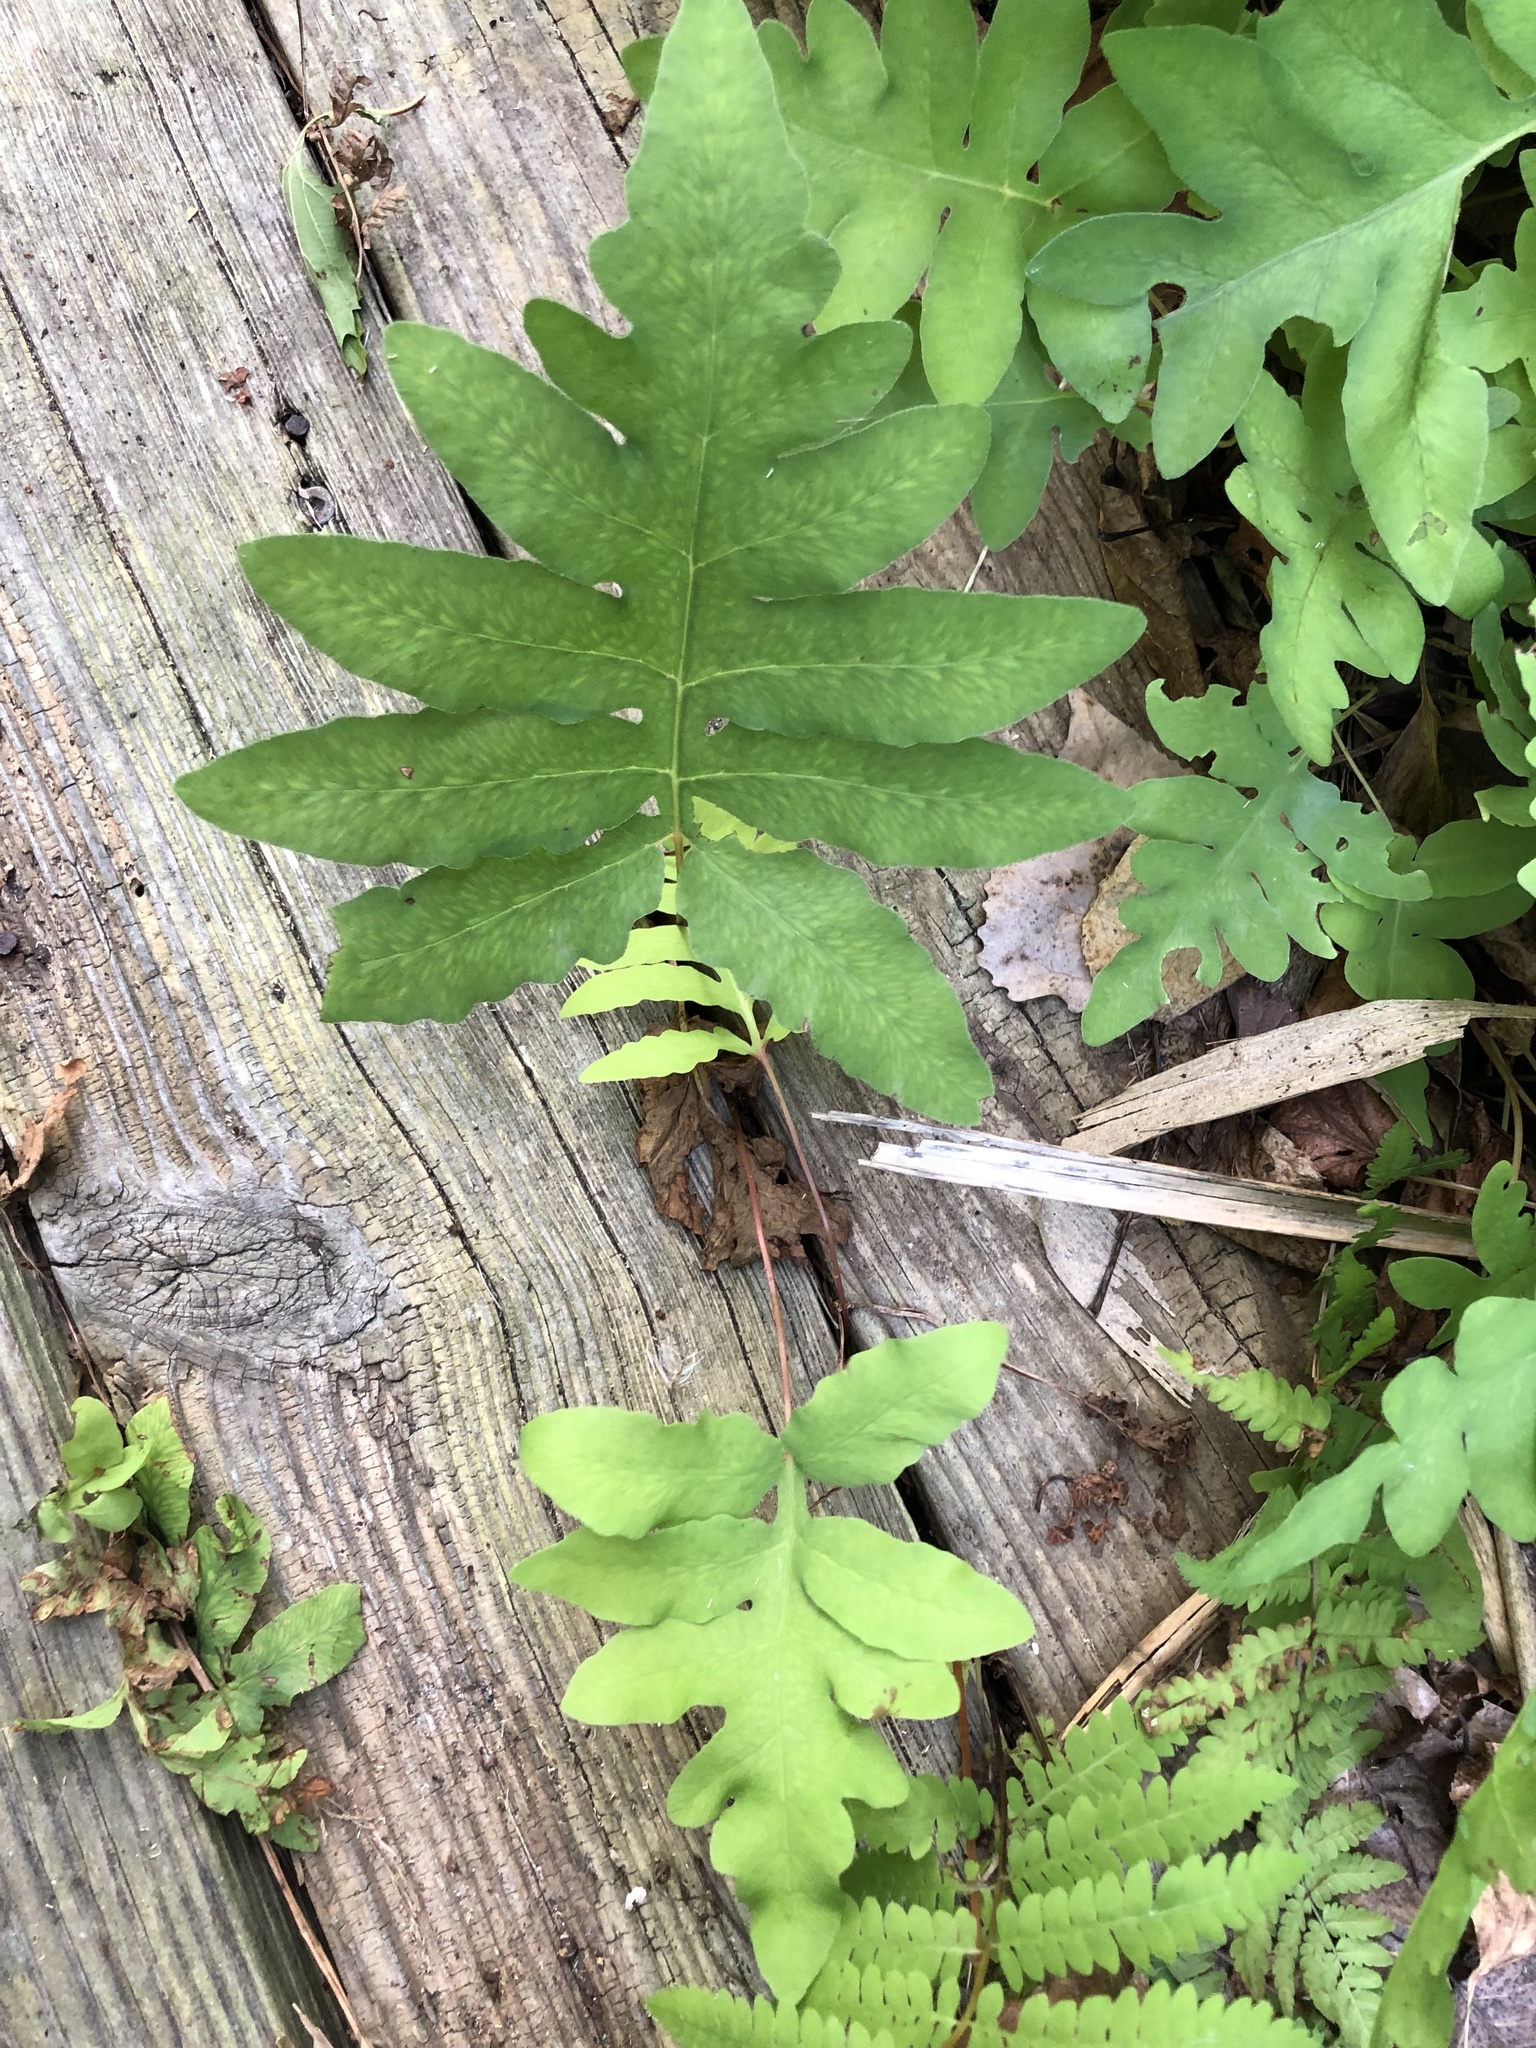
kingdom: Plantae
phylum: Tracheophyta
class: Polypodiopsida
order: Polypodiales
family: Onocleaceae
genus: Onoclea
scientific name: Onoclea sensibilis
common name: Sensitive fern
